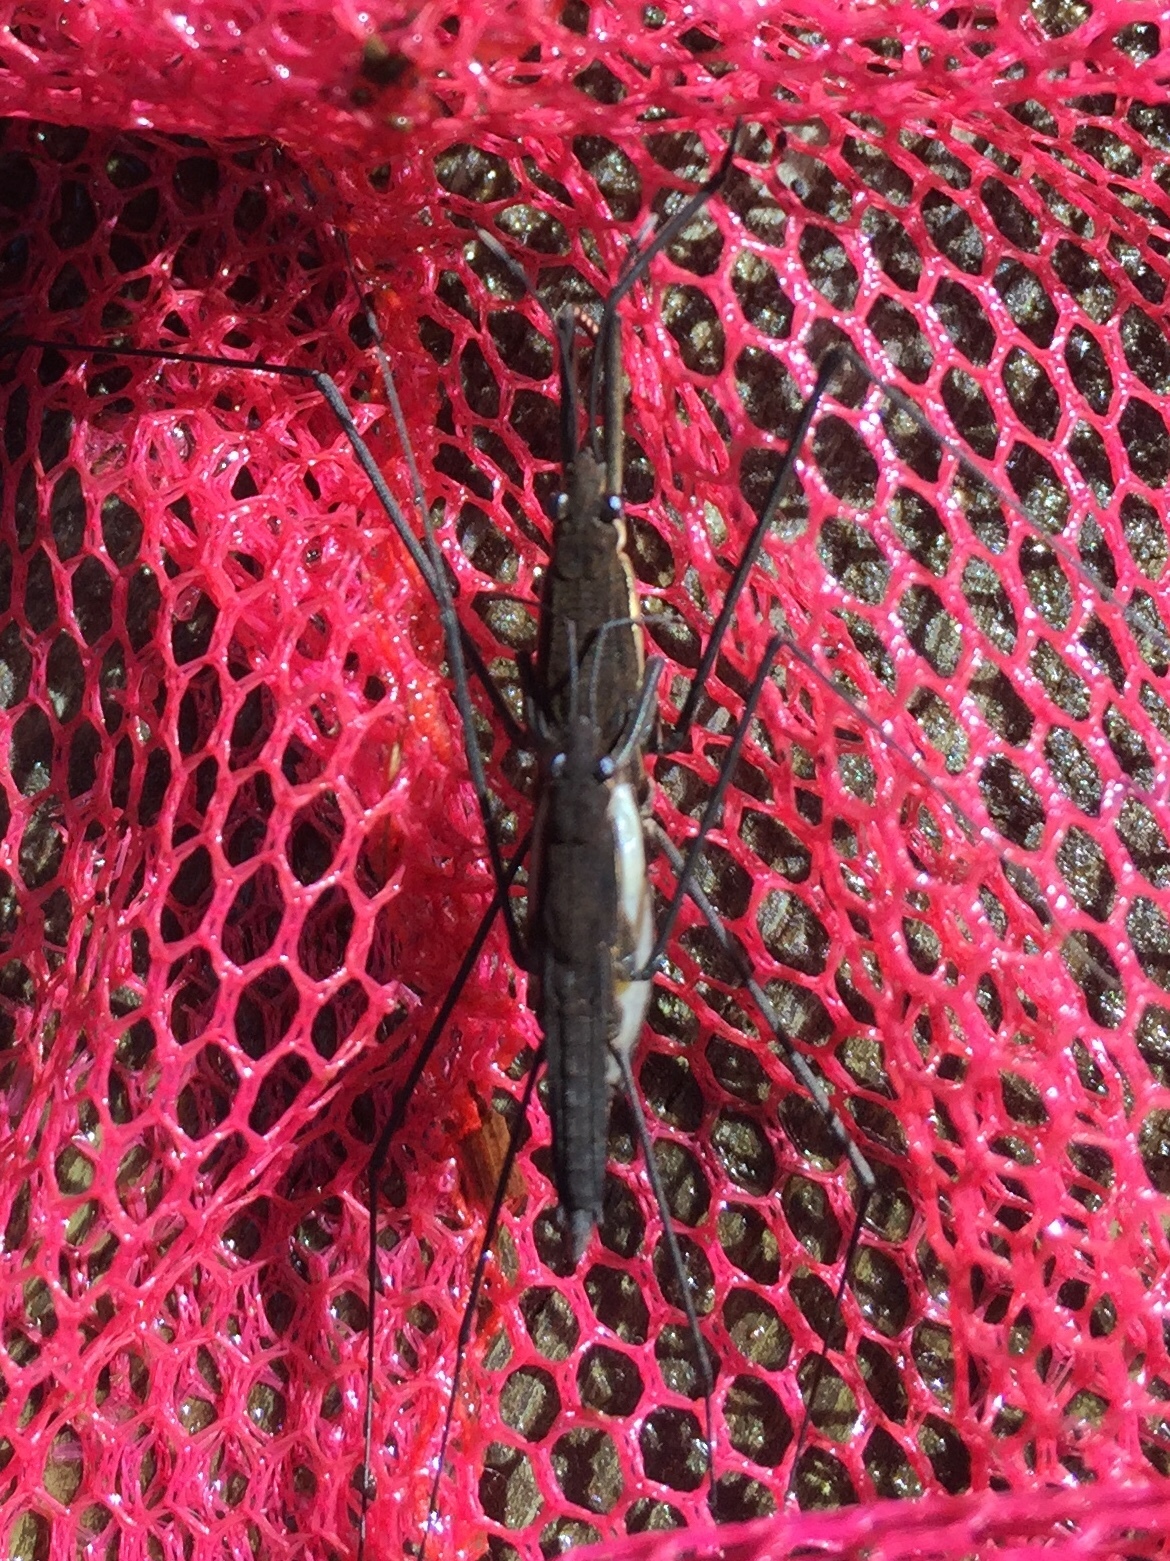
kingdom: Animalia
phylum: Arthropoda
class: Insecta
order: Hemiptera
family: Gerridae
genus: Aquarius
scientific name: Aquarius najas
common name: River skater
